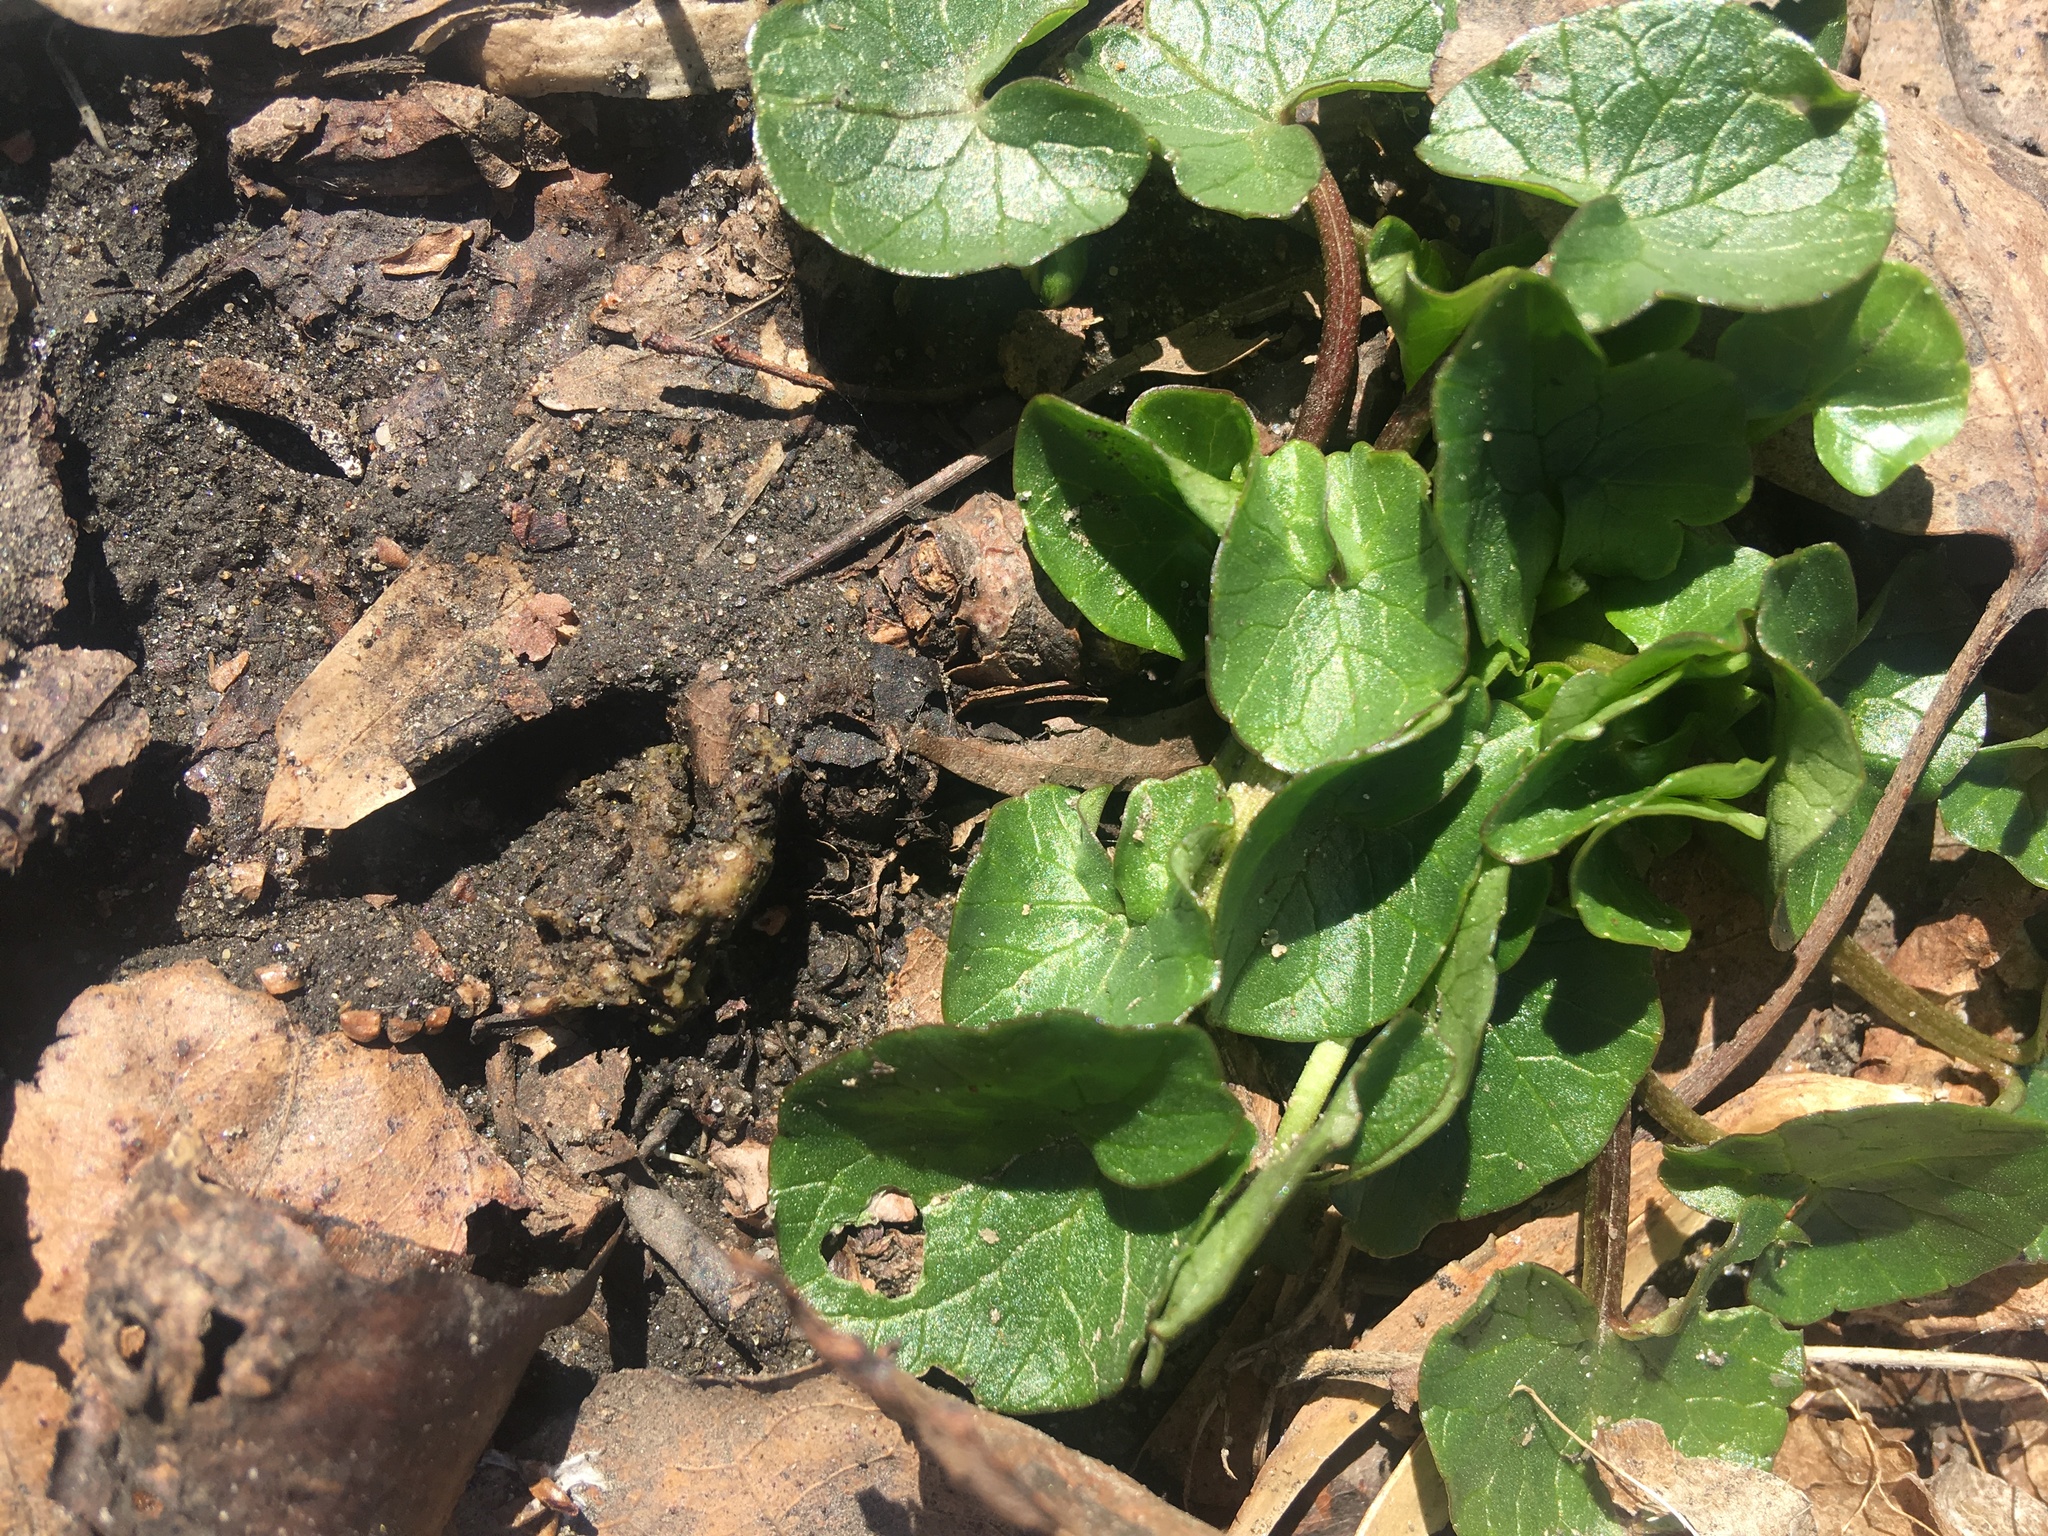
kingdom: Plantae
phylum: Tracheophyta
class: Magnoliopsida
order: Ranunculales
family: Ranunculaceae
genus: Ficaria
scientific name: Ficaria verna
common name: Lesser celandine
